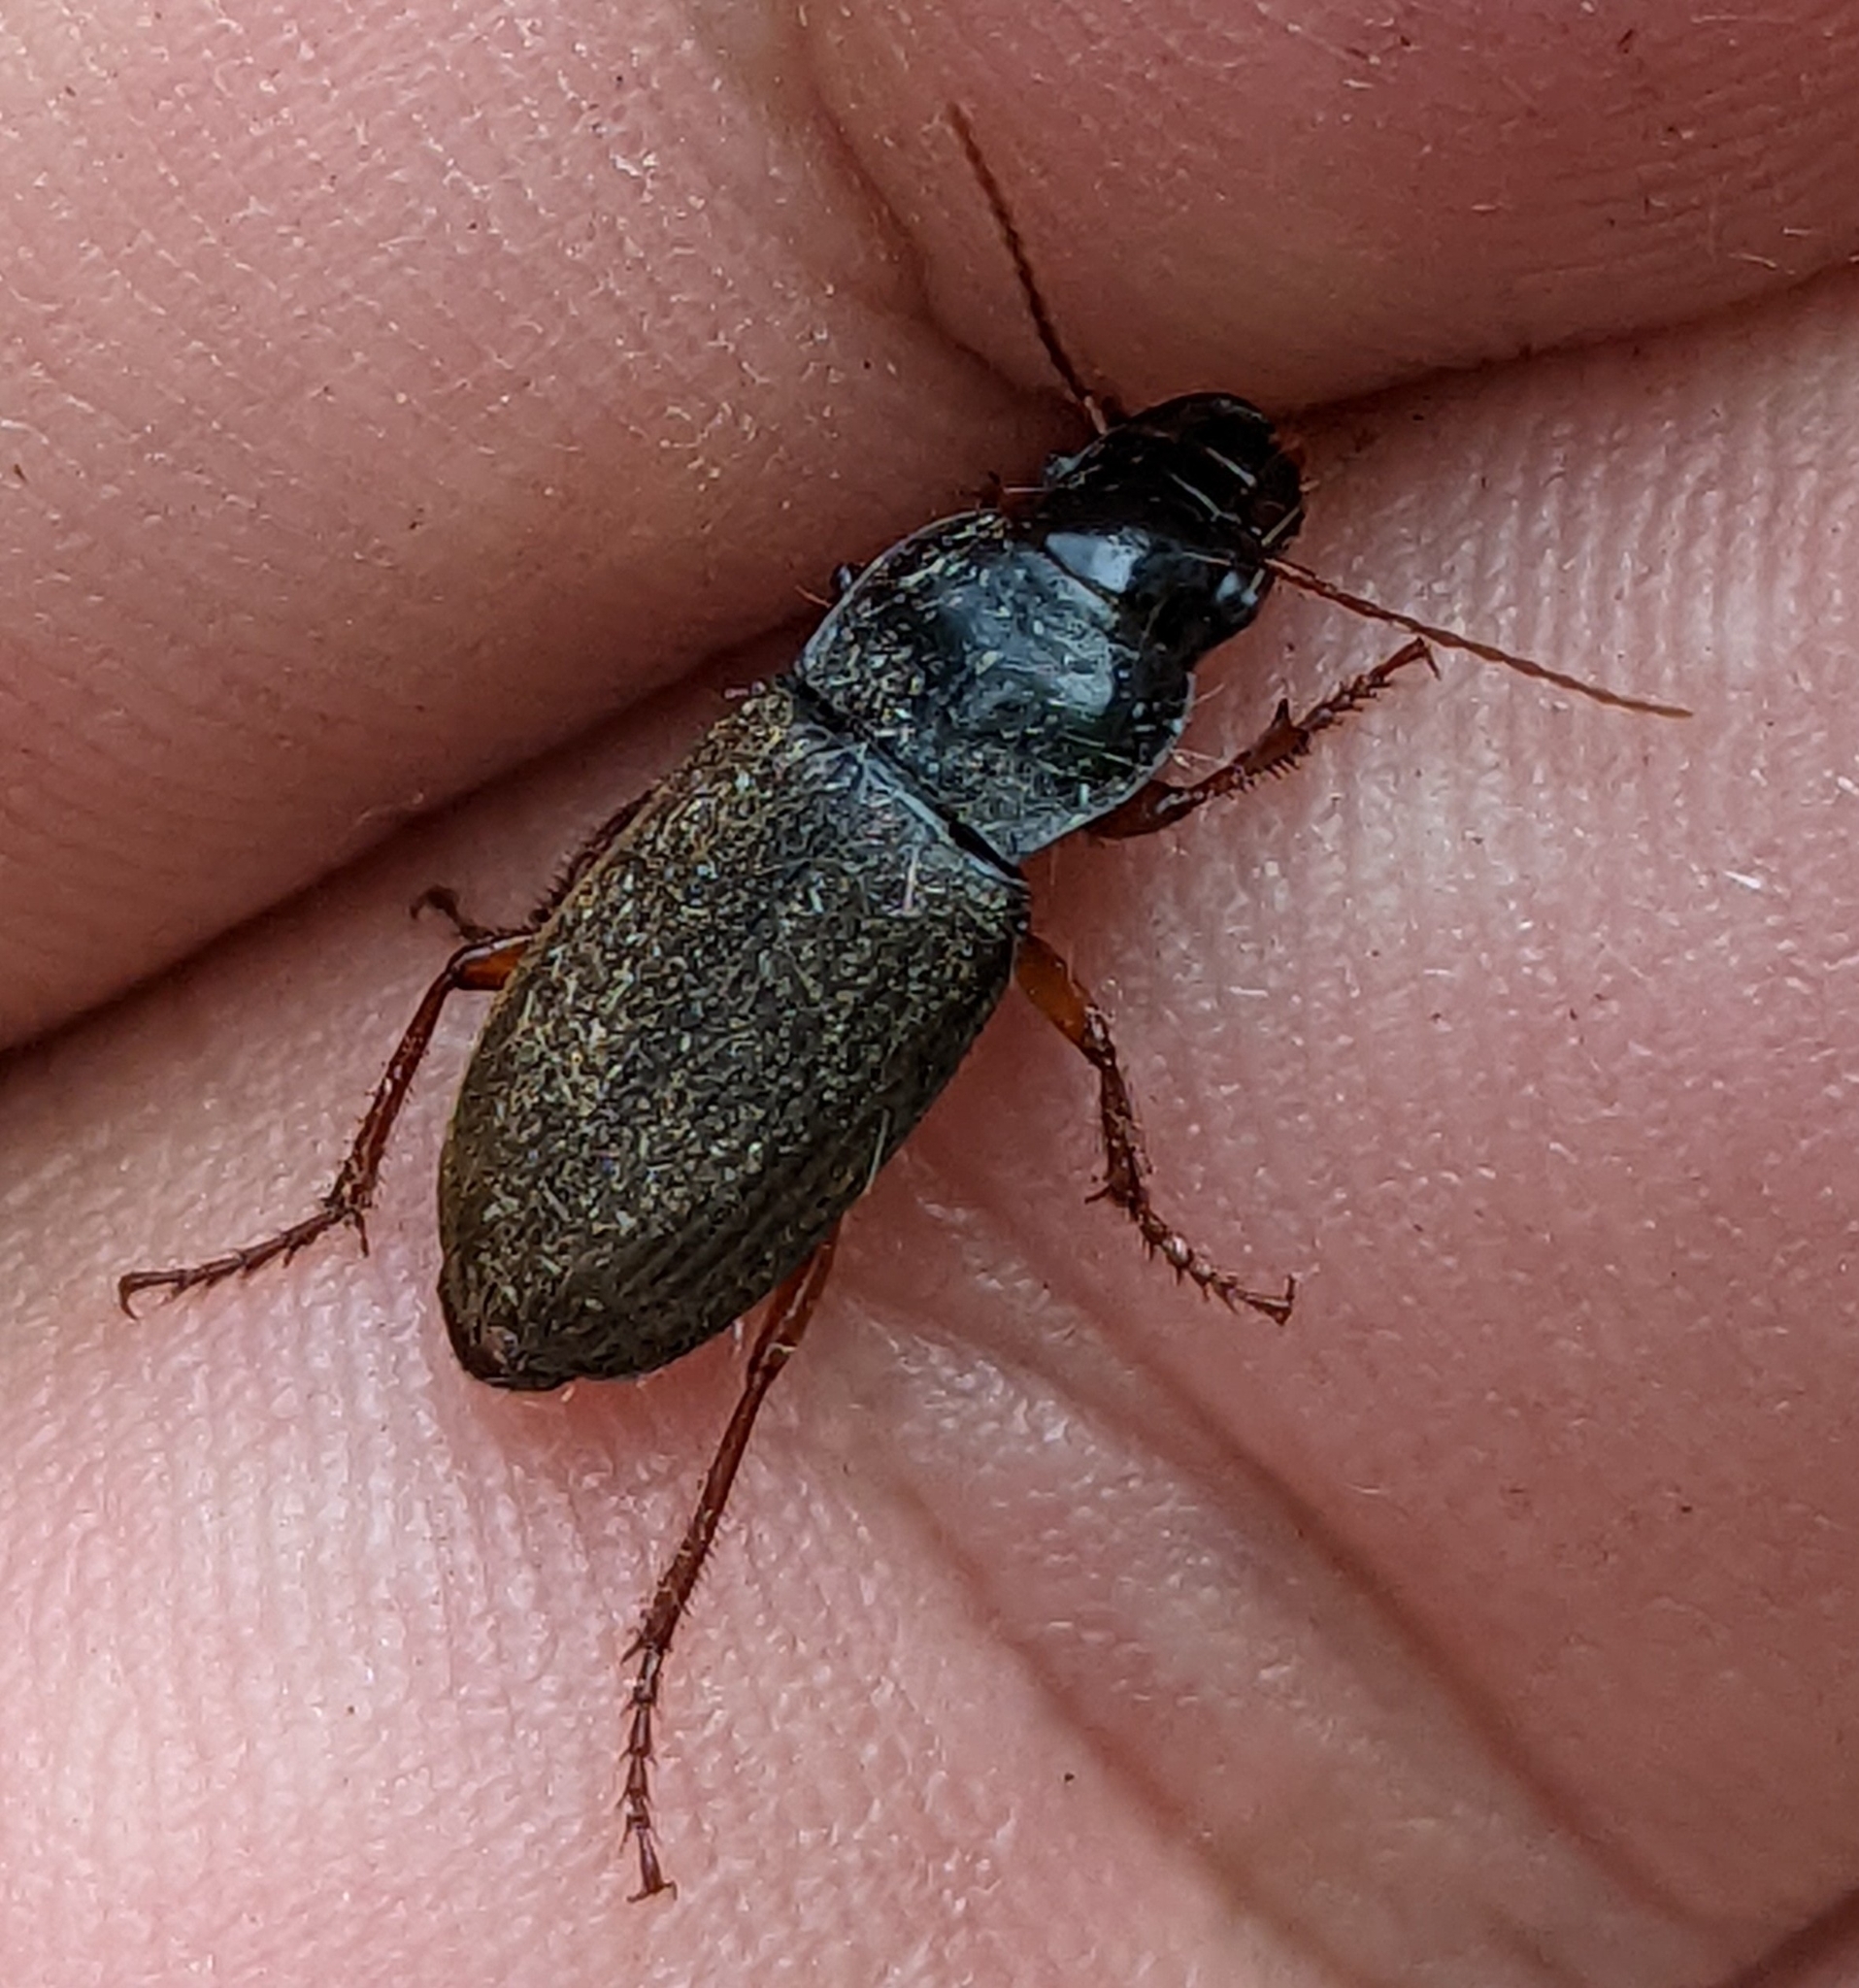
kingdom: Animalia
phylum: Arthropoda
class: Insecta
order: Coleoptera
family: Carabidae
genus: Harpalus
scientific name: Harpalus rufipes
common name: Strawberry harp ground beetle
